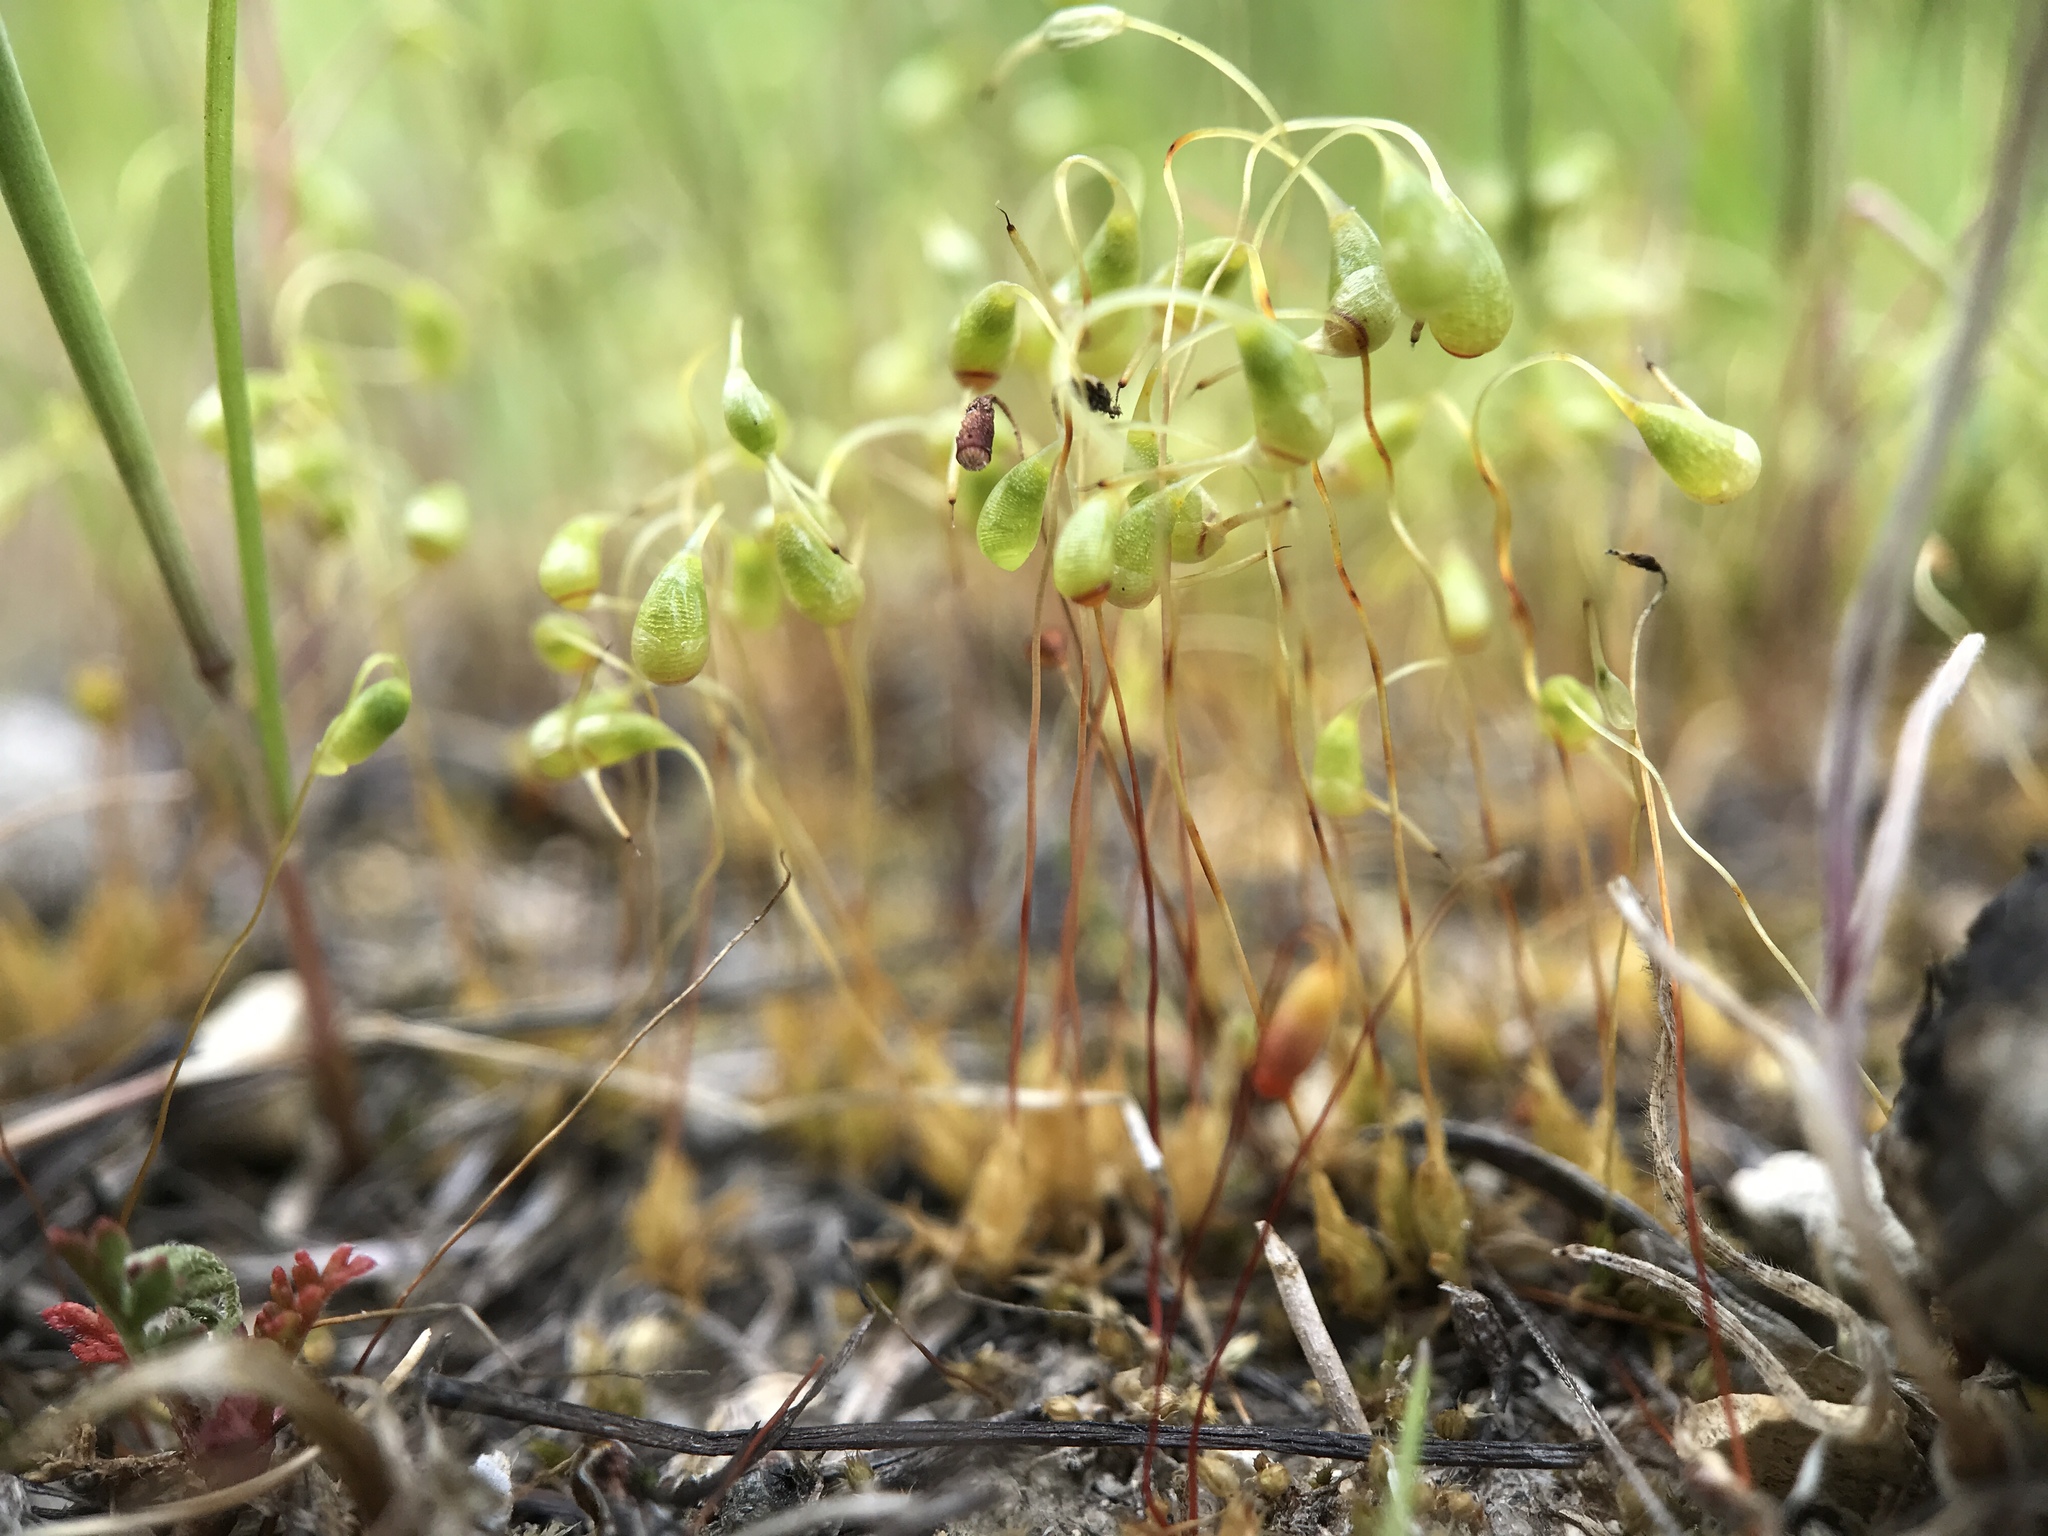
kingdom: Plantae
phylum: Bryophyta
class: Bryopsida
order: Funariales
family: Funariaceae
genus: Funaria
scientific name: Funaria hygrometrica
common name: Common cord moss
